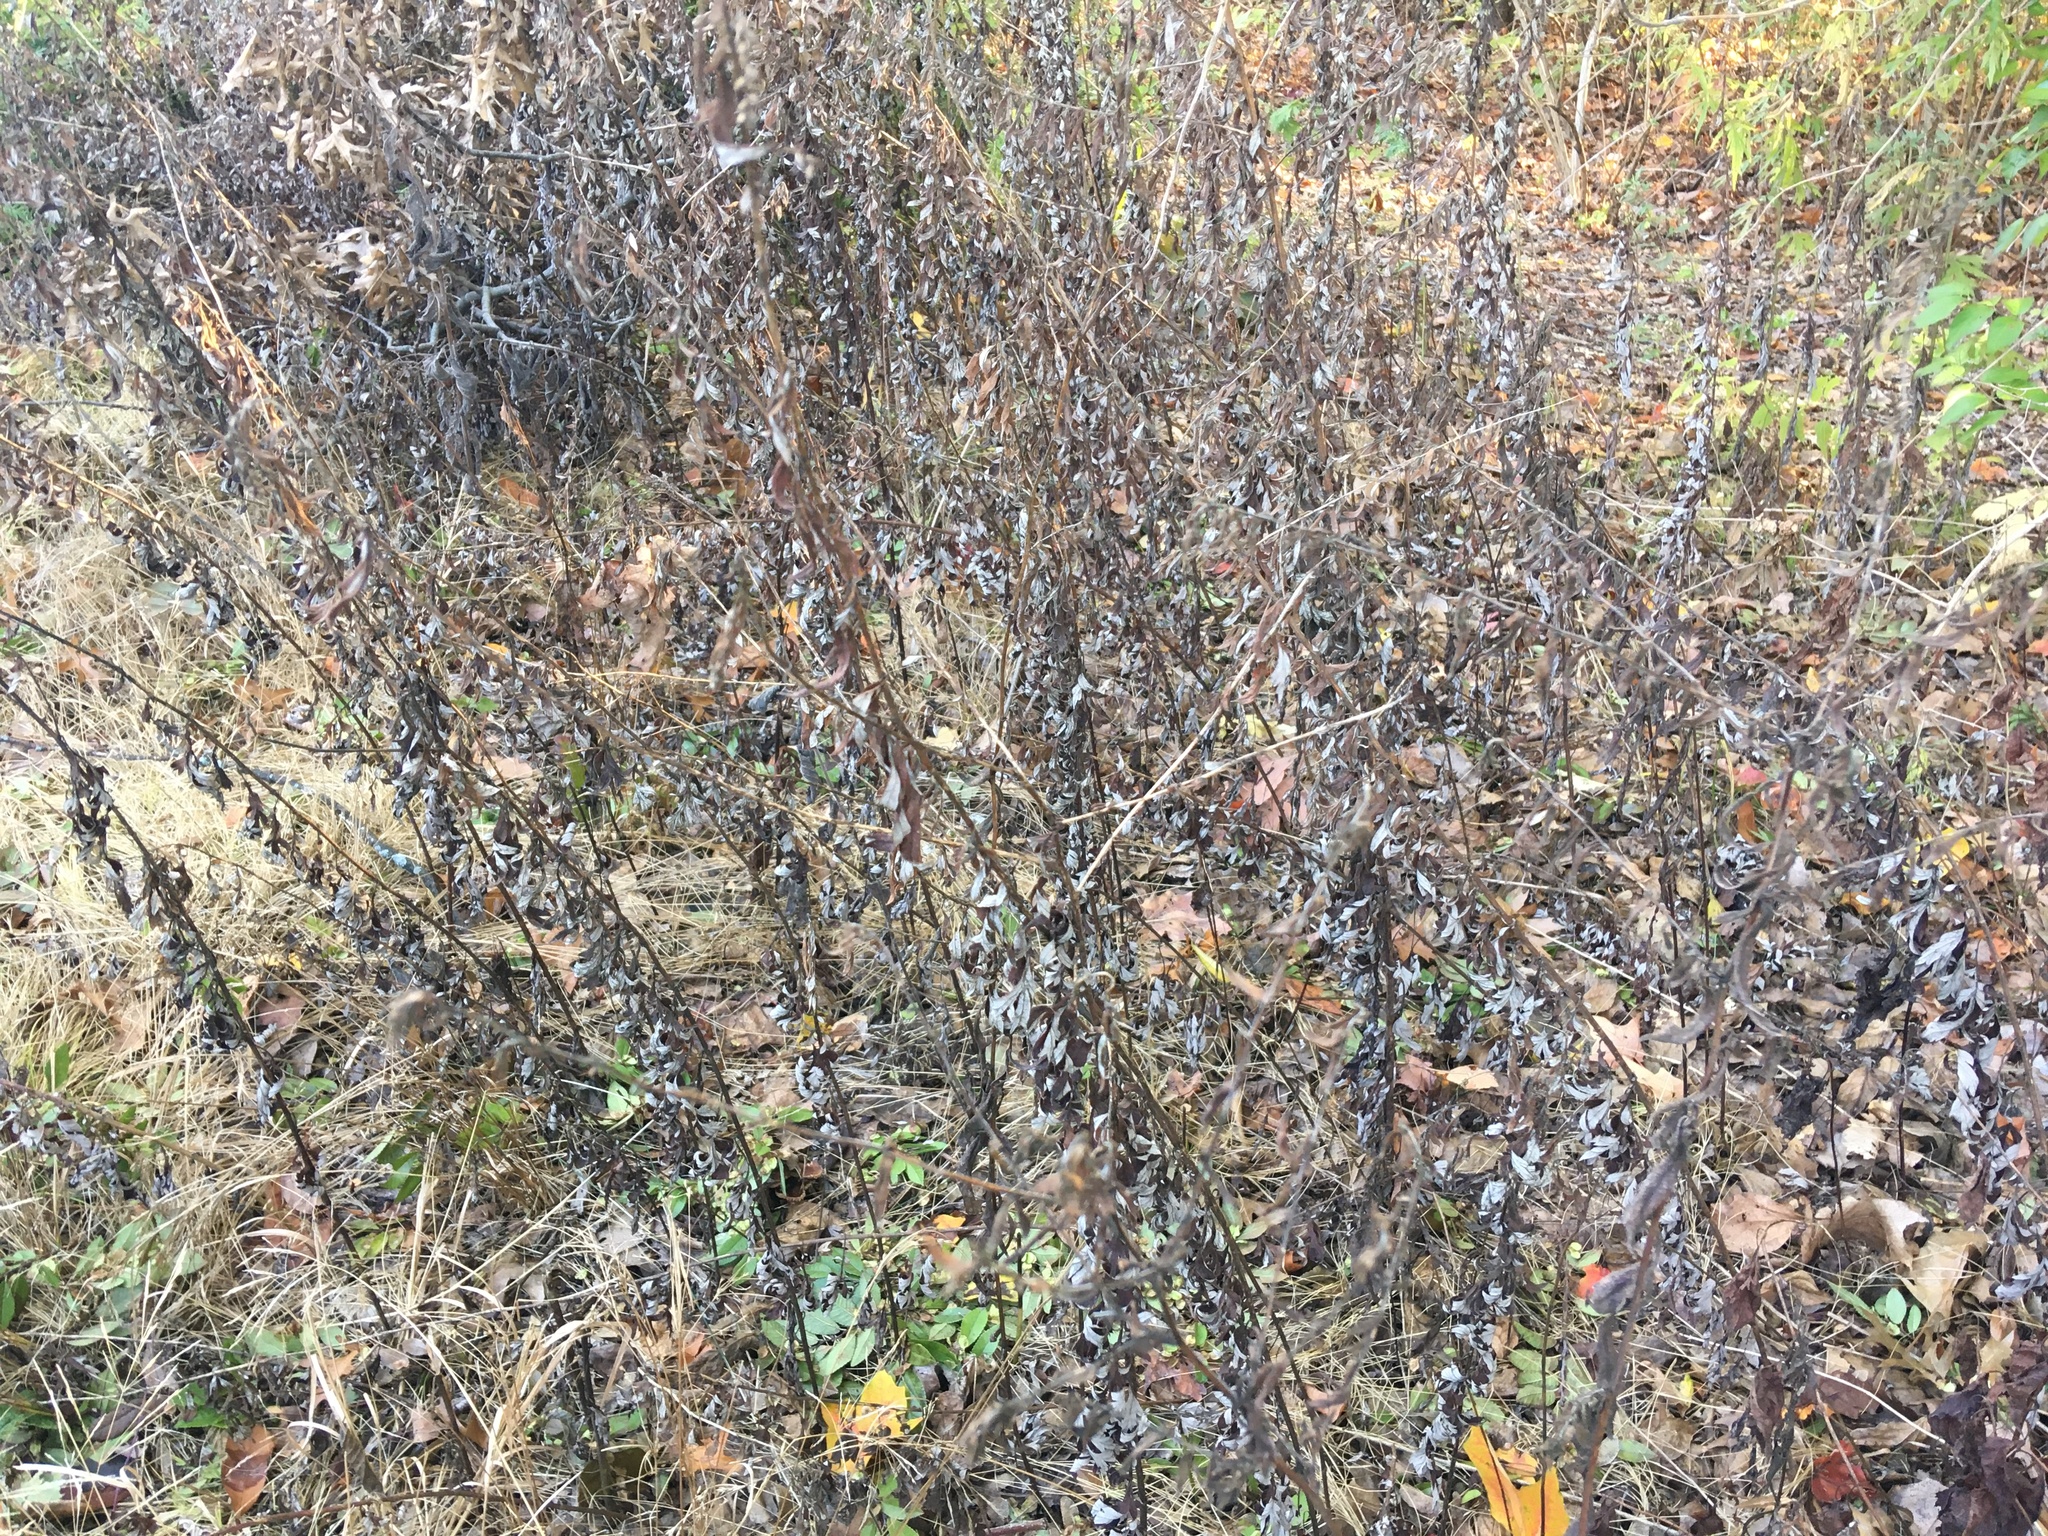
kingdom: Plantae
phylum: Tracheophyta
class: Magnoliopsida
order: Asterales
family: Asteraceae
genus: Artemisia
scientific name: Artemisia vulgaris
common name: Mugwort
